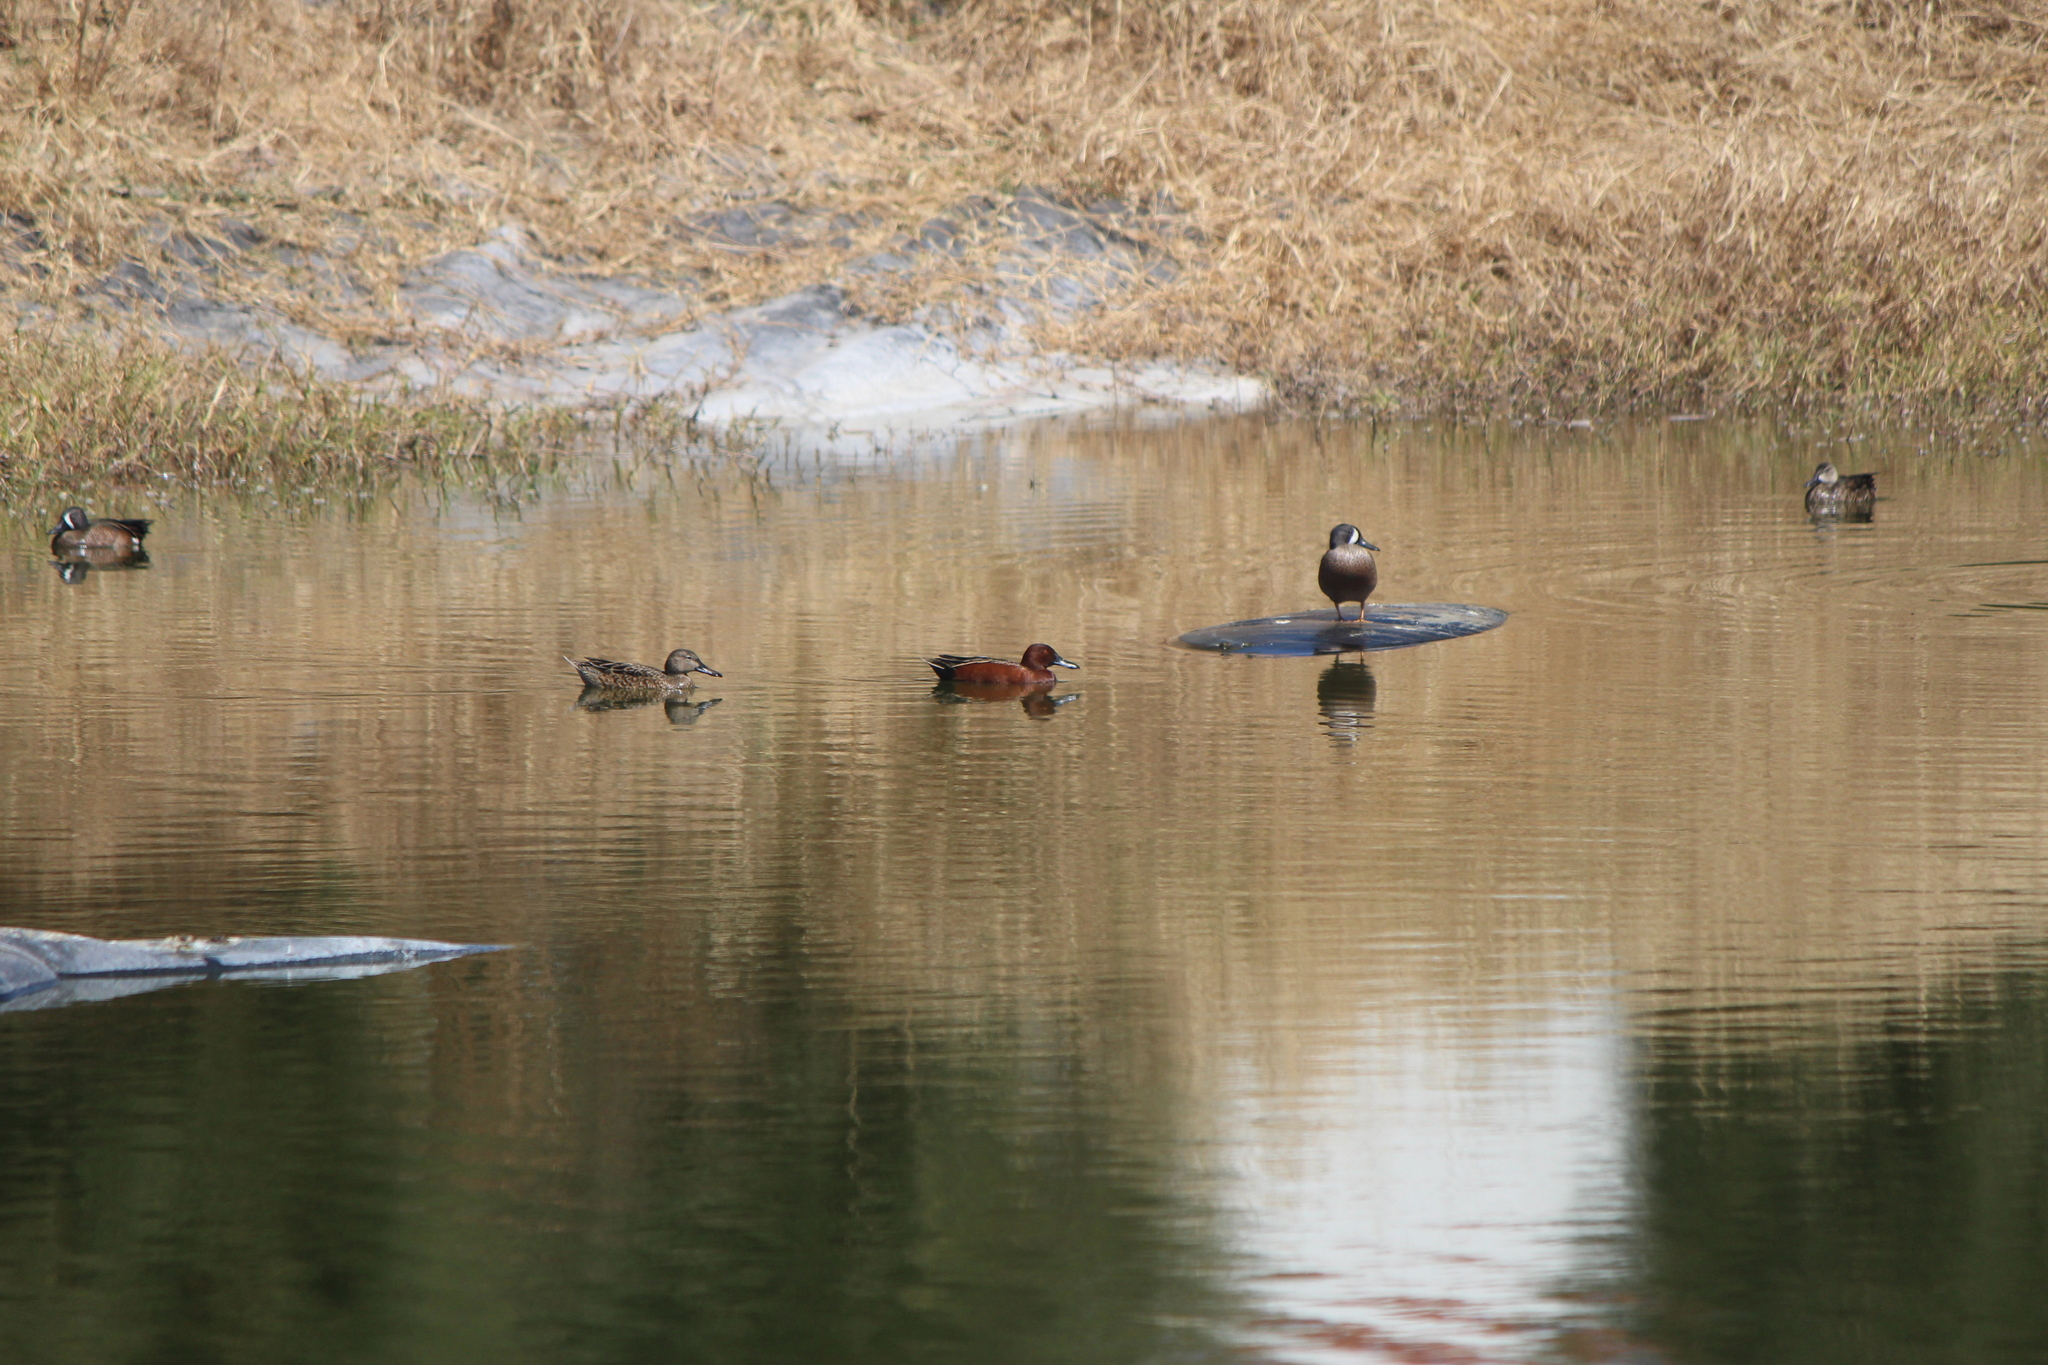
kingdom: Animalia
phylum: Chordata
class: Aves
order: Anseriformes
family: Anatidae
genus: Spatula
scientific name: Spatula cyanoptera
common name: Cinnamon teal
